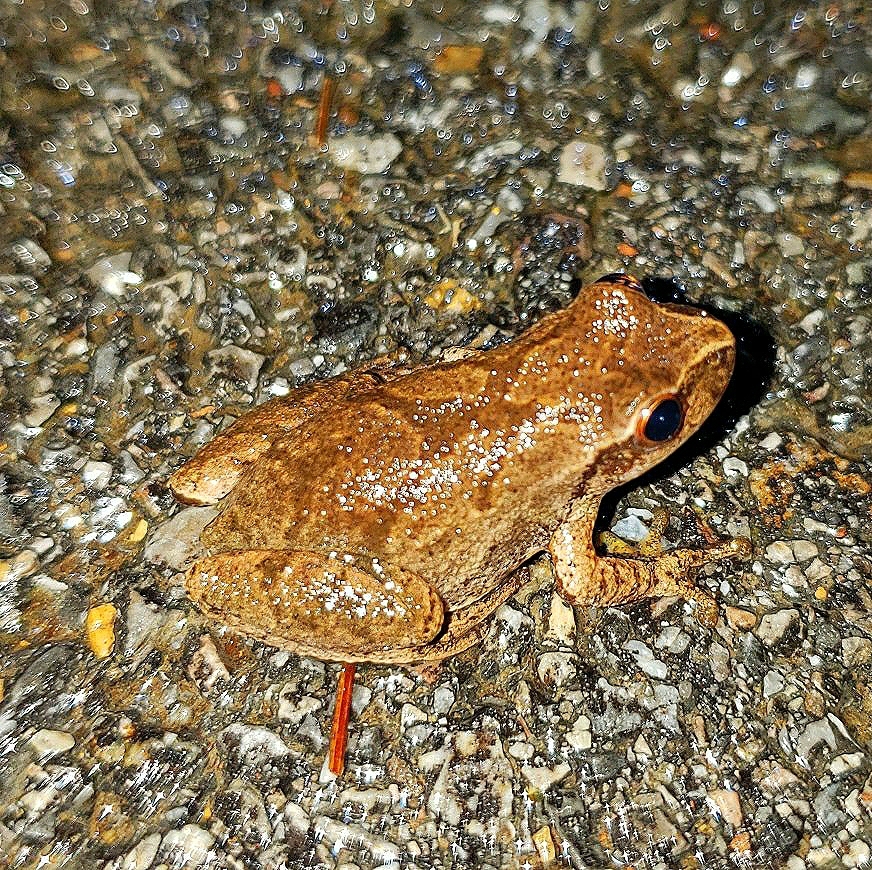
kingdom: Animalia
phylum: Chordata
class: Amphibia
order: Anura
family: Hylidae
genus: Pseudacris
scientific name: Pseudacris crucifer
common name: Spring peeper
